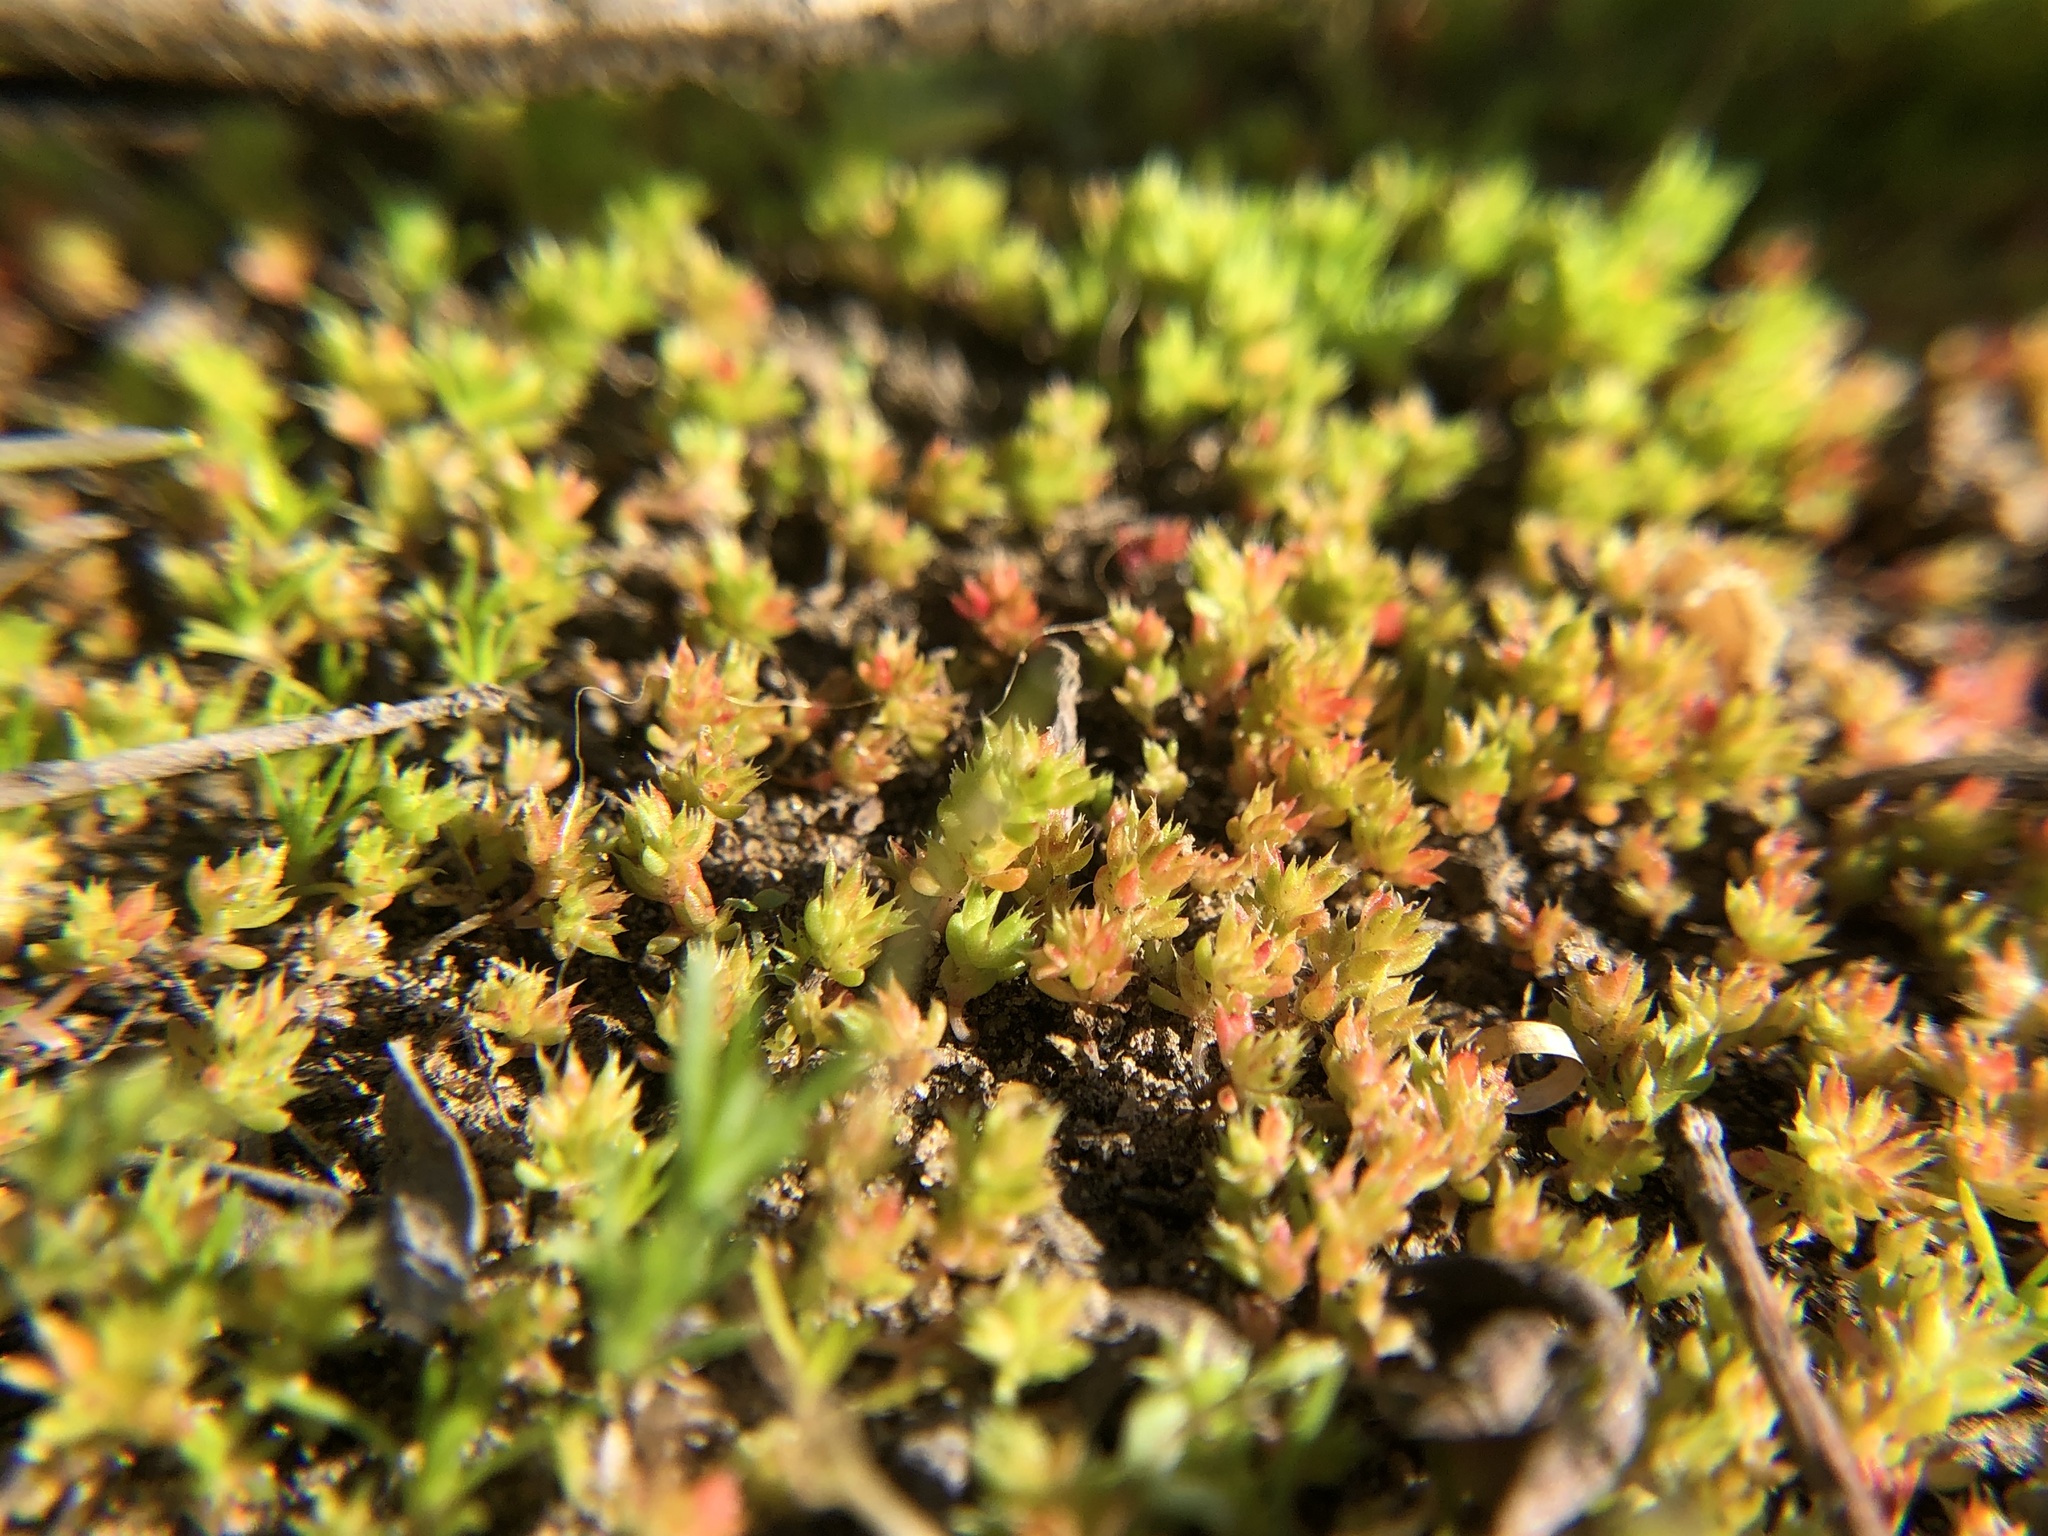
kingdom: Plantae
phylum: Tracheophyta
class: Magnoliopsida
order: Saxifragales
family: Crassulaceae
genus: Crassula
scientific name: Crassula tillaea
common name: Mossy stonecrop
